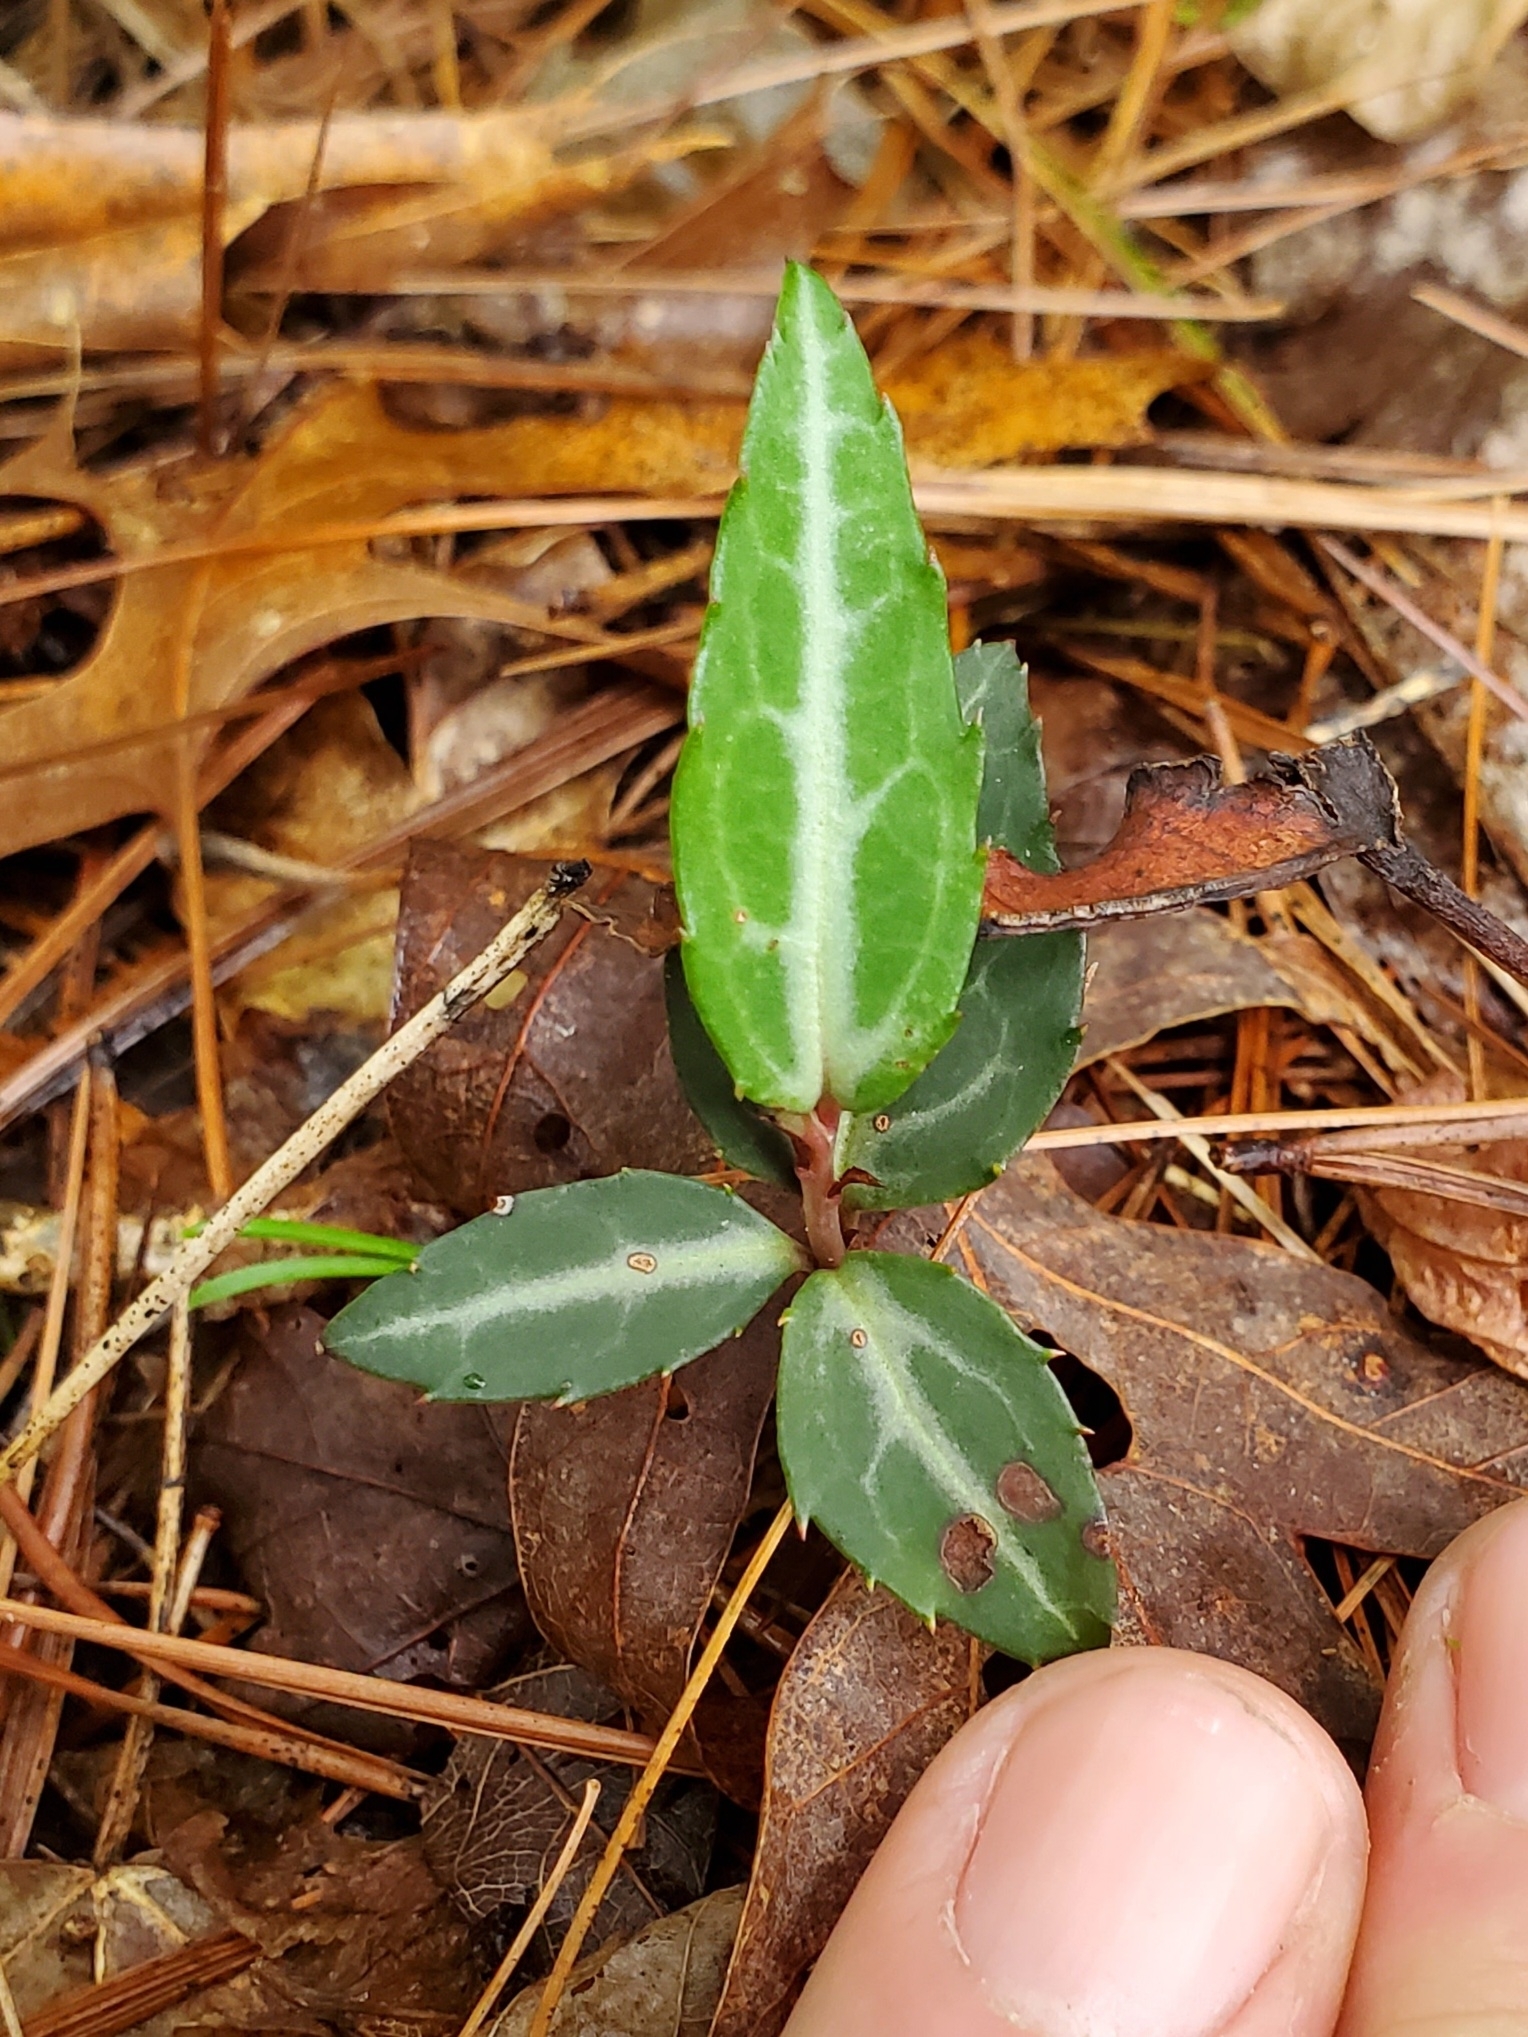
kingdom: Plantae
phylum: Tracheophyta
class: Magnoliopsida
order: Ericales
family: Ericaceae
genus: Chimaphila
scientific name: Chimaphila maculata
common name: Spotted pipsissewa
